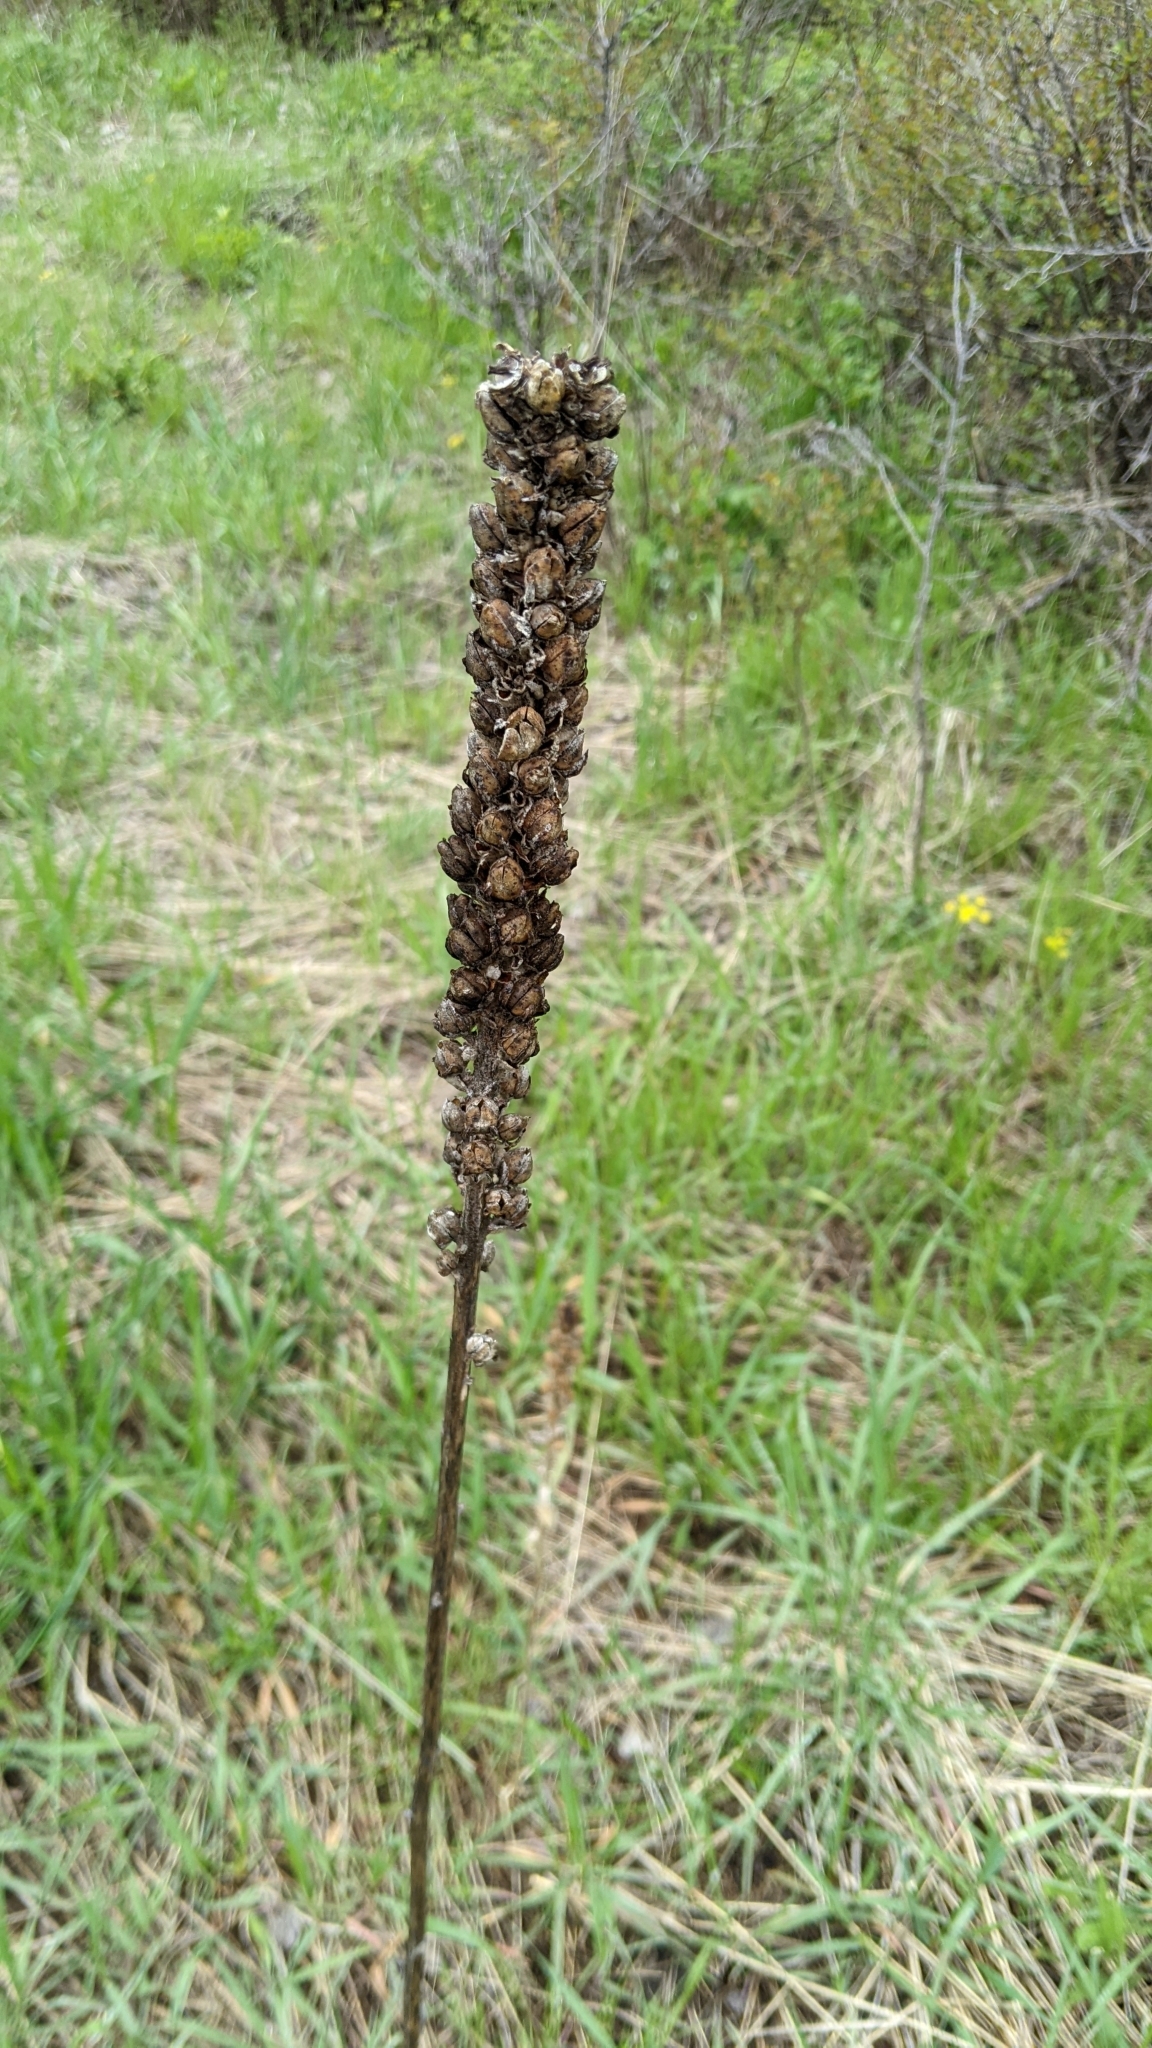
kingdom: Plantae
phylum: Tracheophyta
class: Magnoliopsida
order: Lamiales
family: Scrophulariaceae
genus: Verbascum
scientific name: Verbascum thapsus
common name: Common mullein
